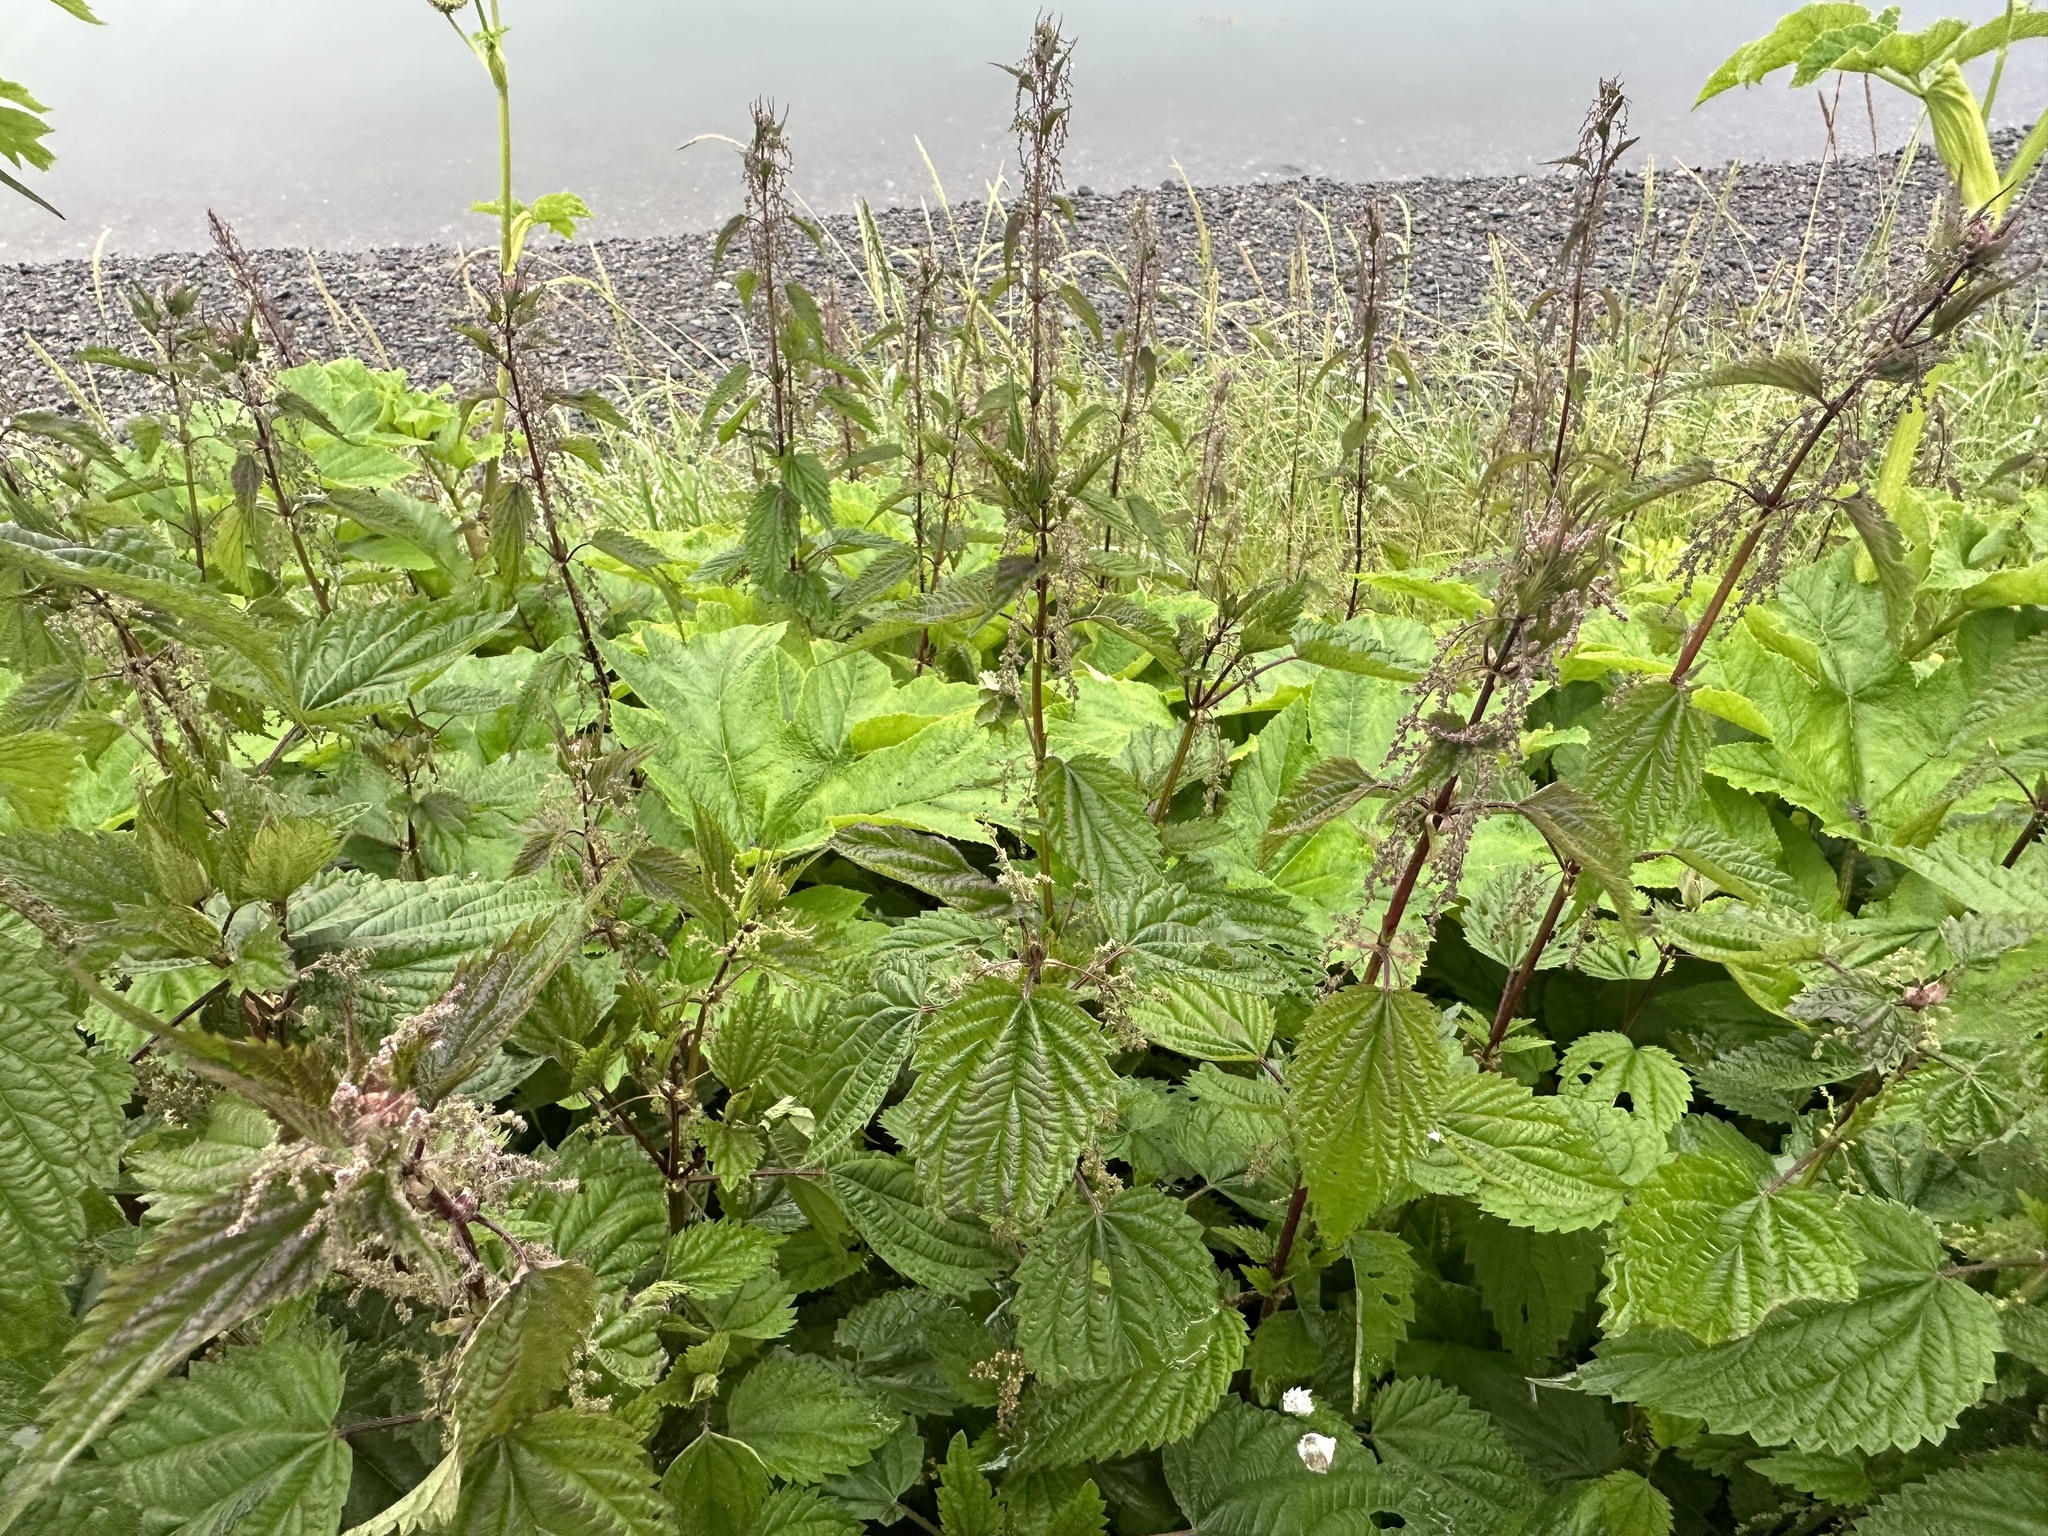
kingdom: Plantae
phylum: Tracheophyta
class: Magnoliopsida
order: Rosales
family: Urticaceae
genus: Urtica
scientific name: Urtica gracilis
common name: Slender stinging nettle
